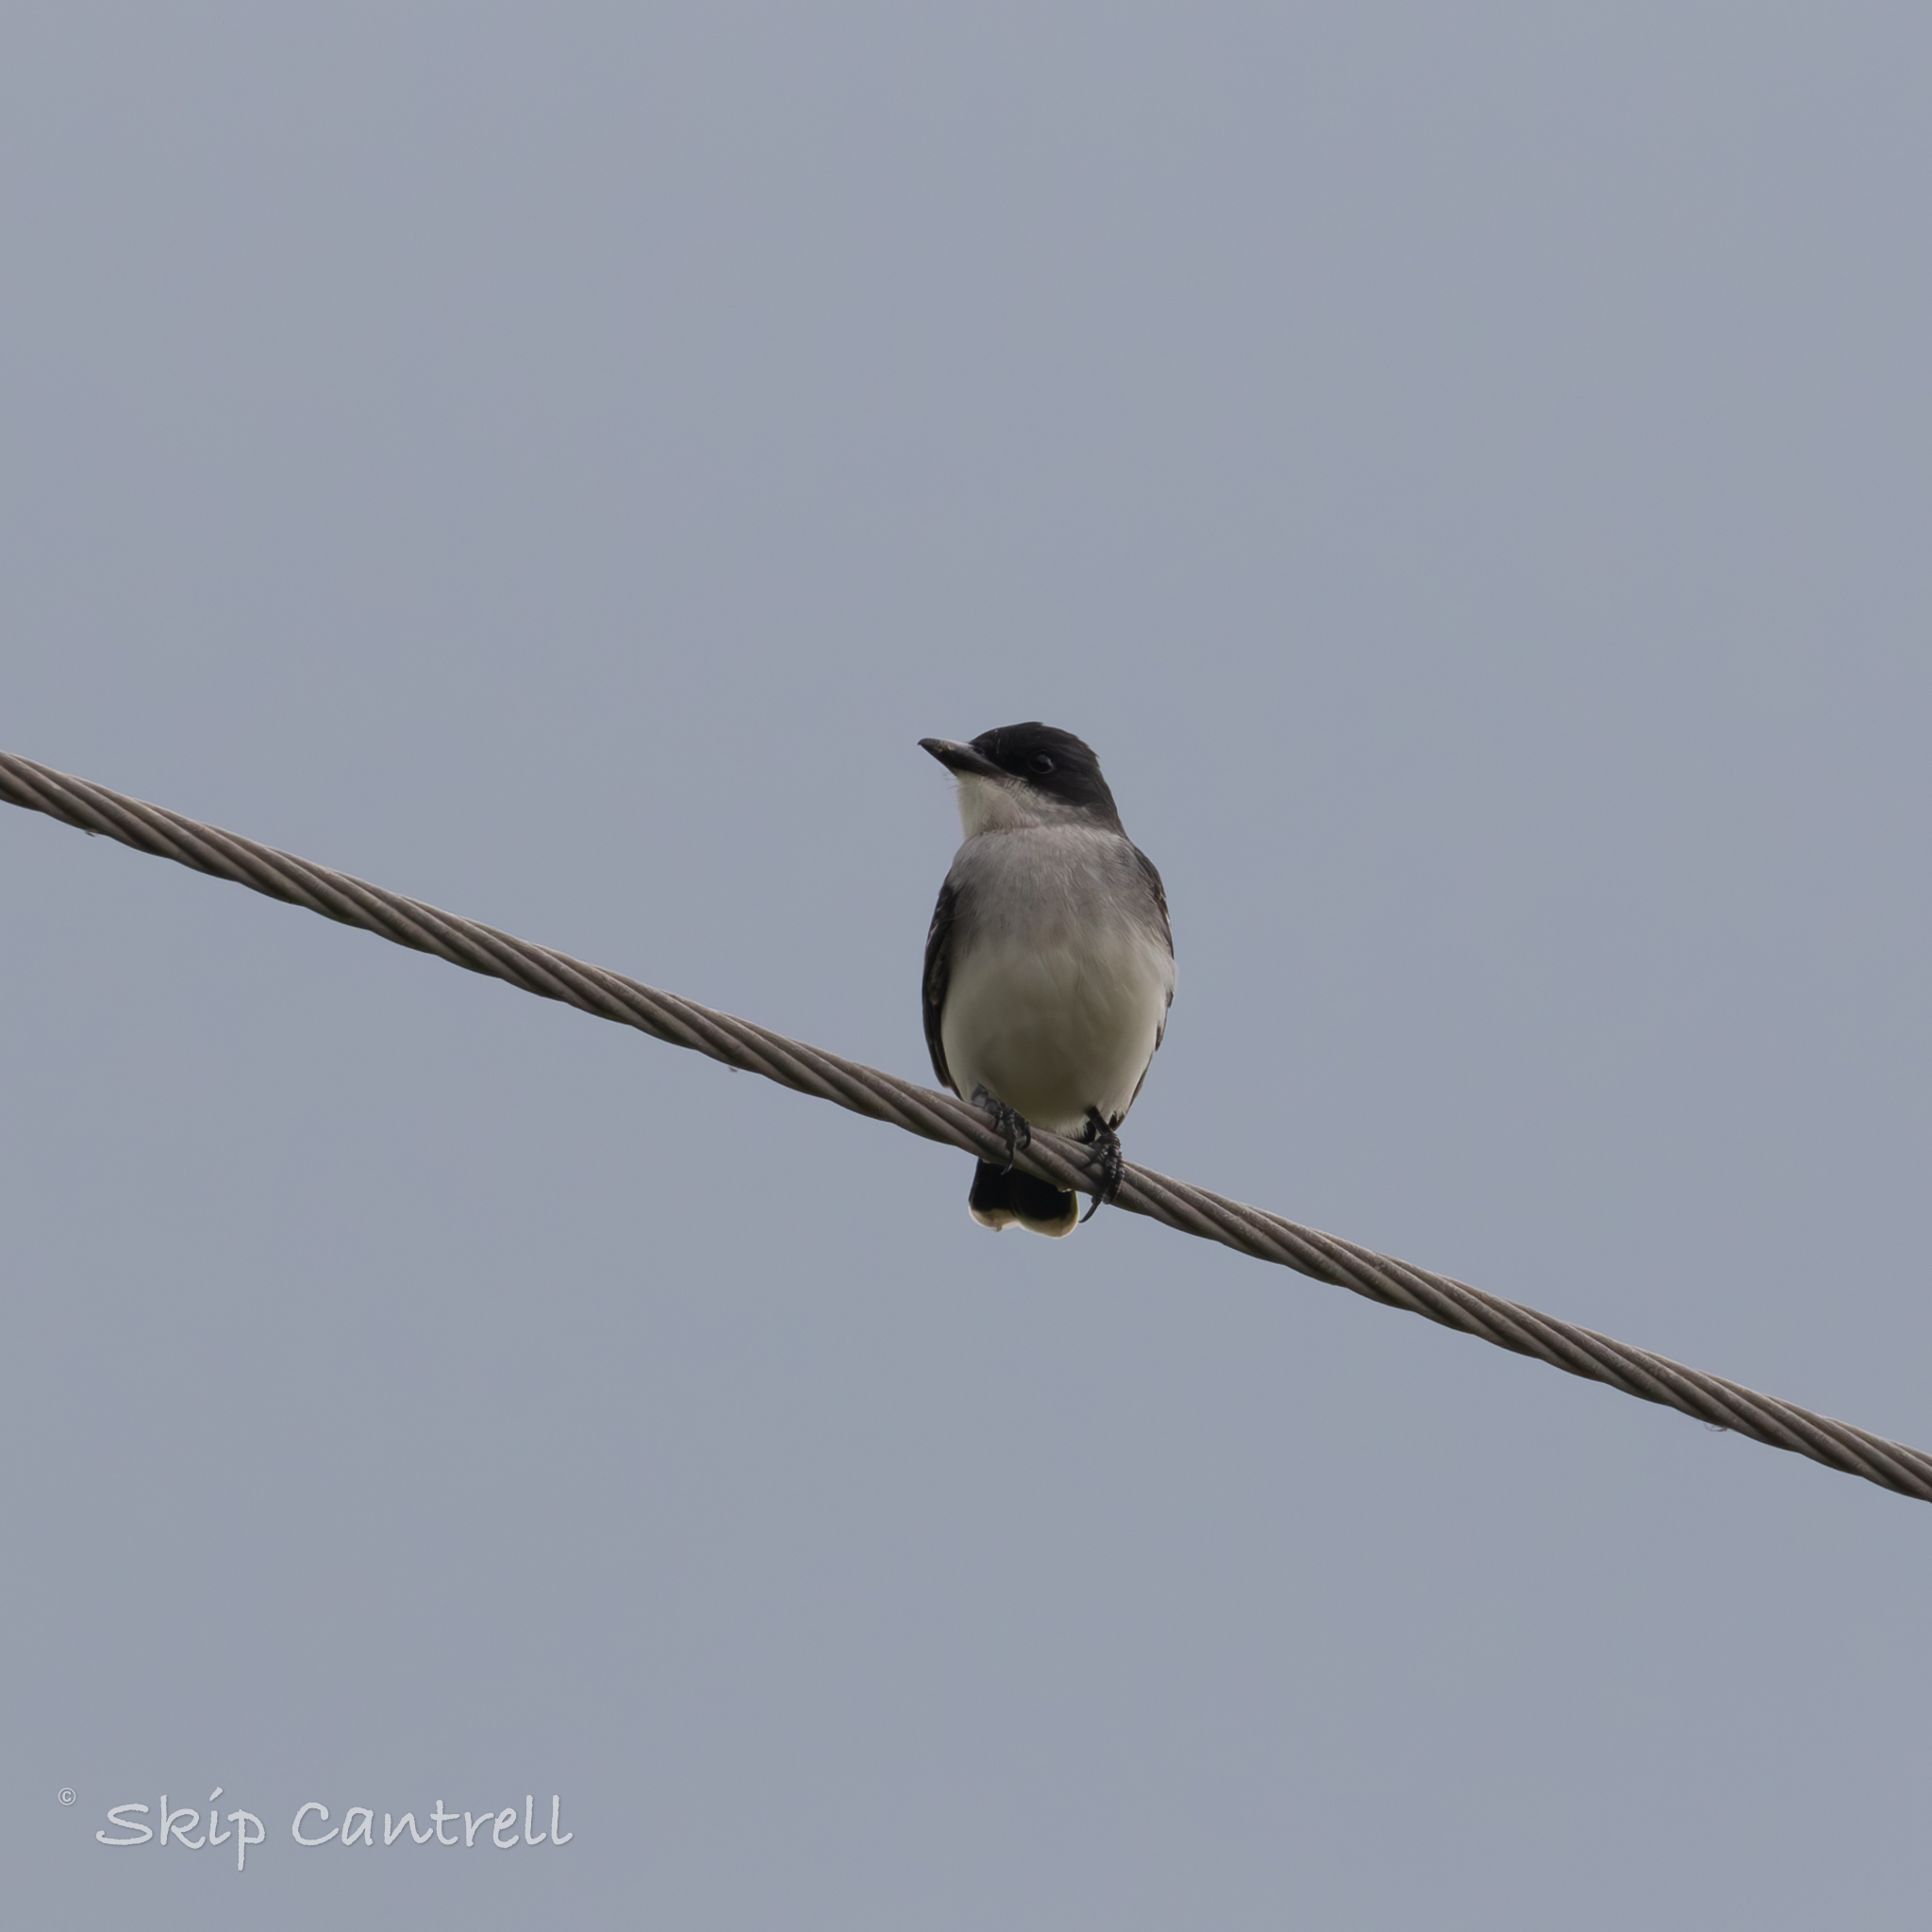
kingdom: Animalia
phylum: Chordata
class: Aves
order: Passeriformes
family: Tyrannidae
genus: Tyrannus
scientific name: Tyrannus tyrannus
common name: Eastern kingbird
